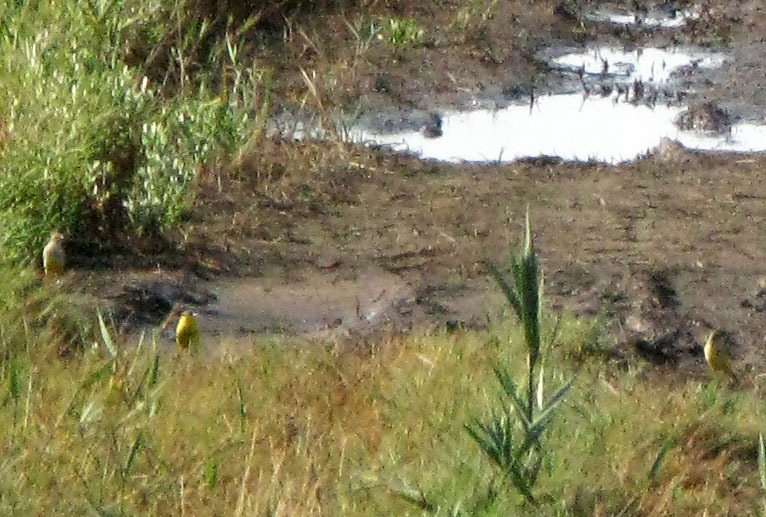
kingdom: Animalia
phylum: Chordata
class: Aves
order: Passeriformes
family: Motacillidae
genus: Motacilla
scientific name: Motacilla flava
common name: Western yellow wagtail
